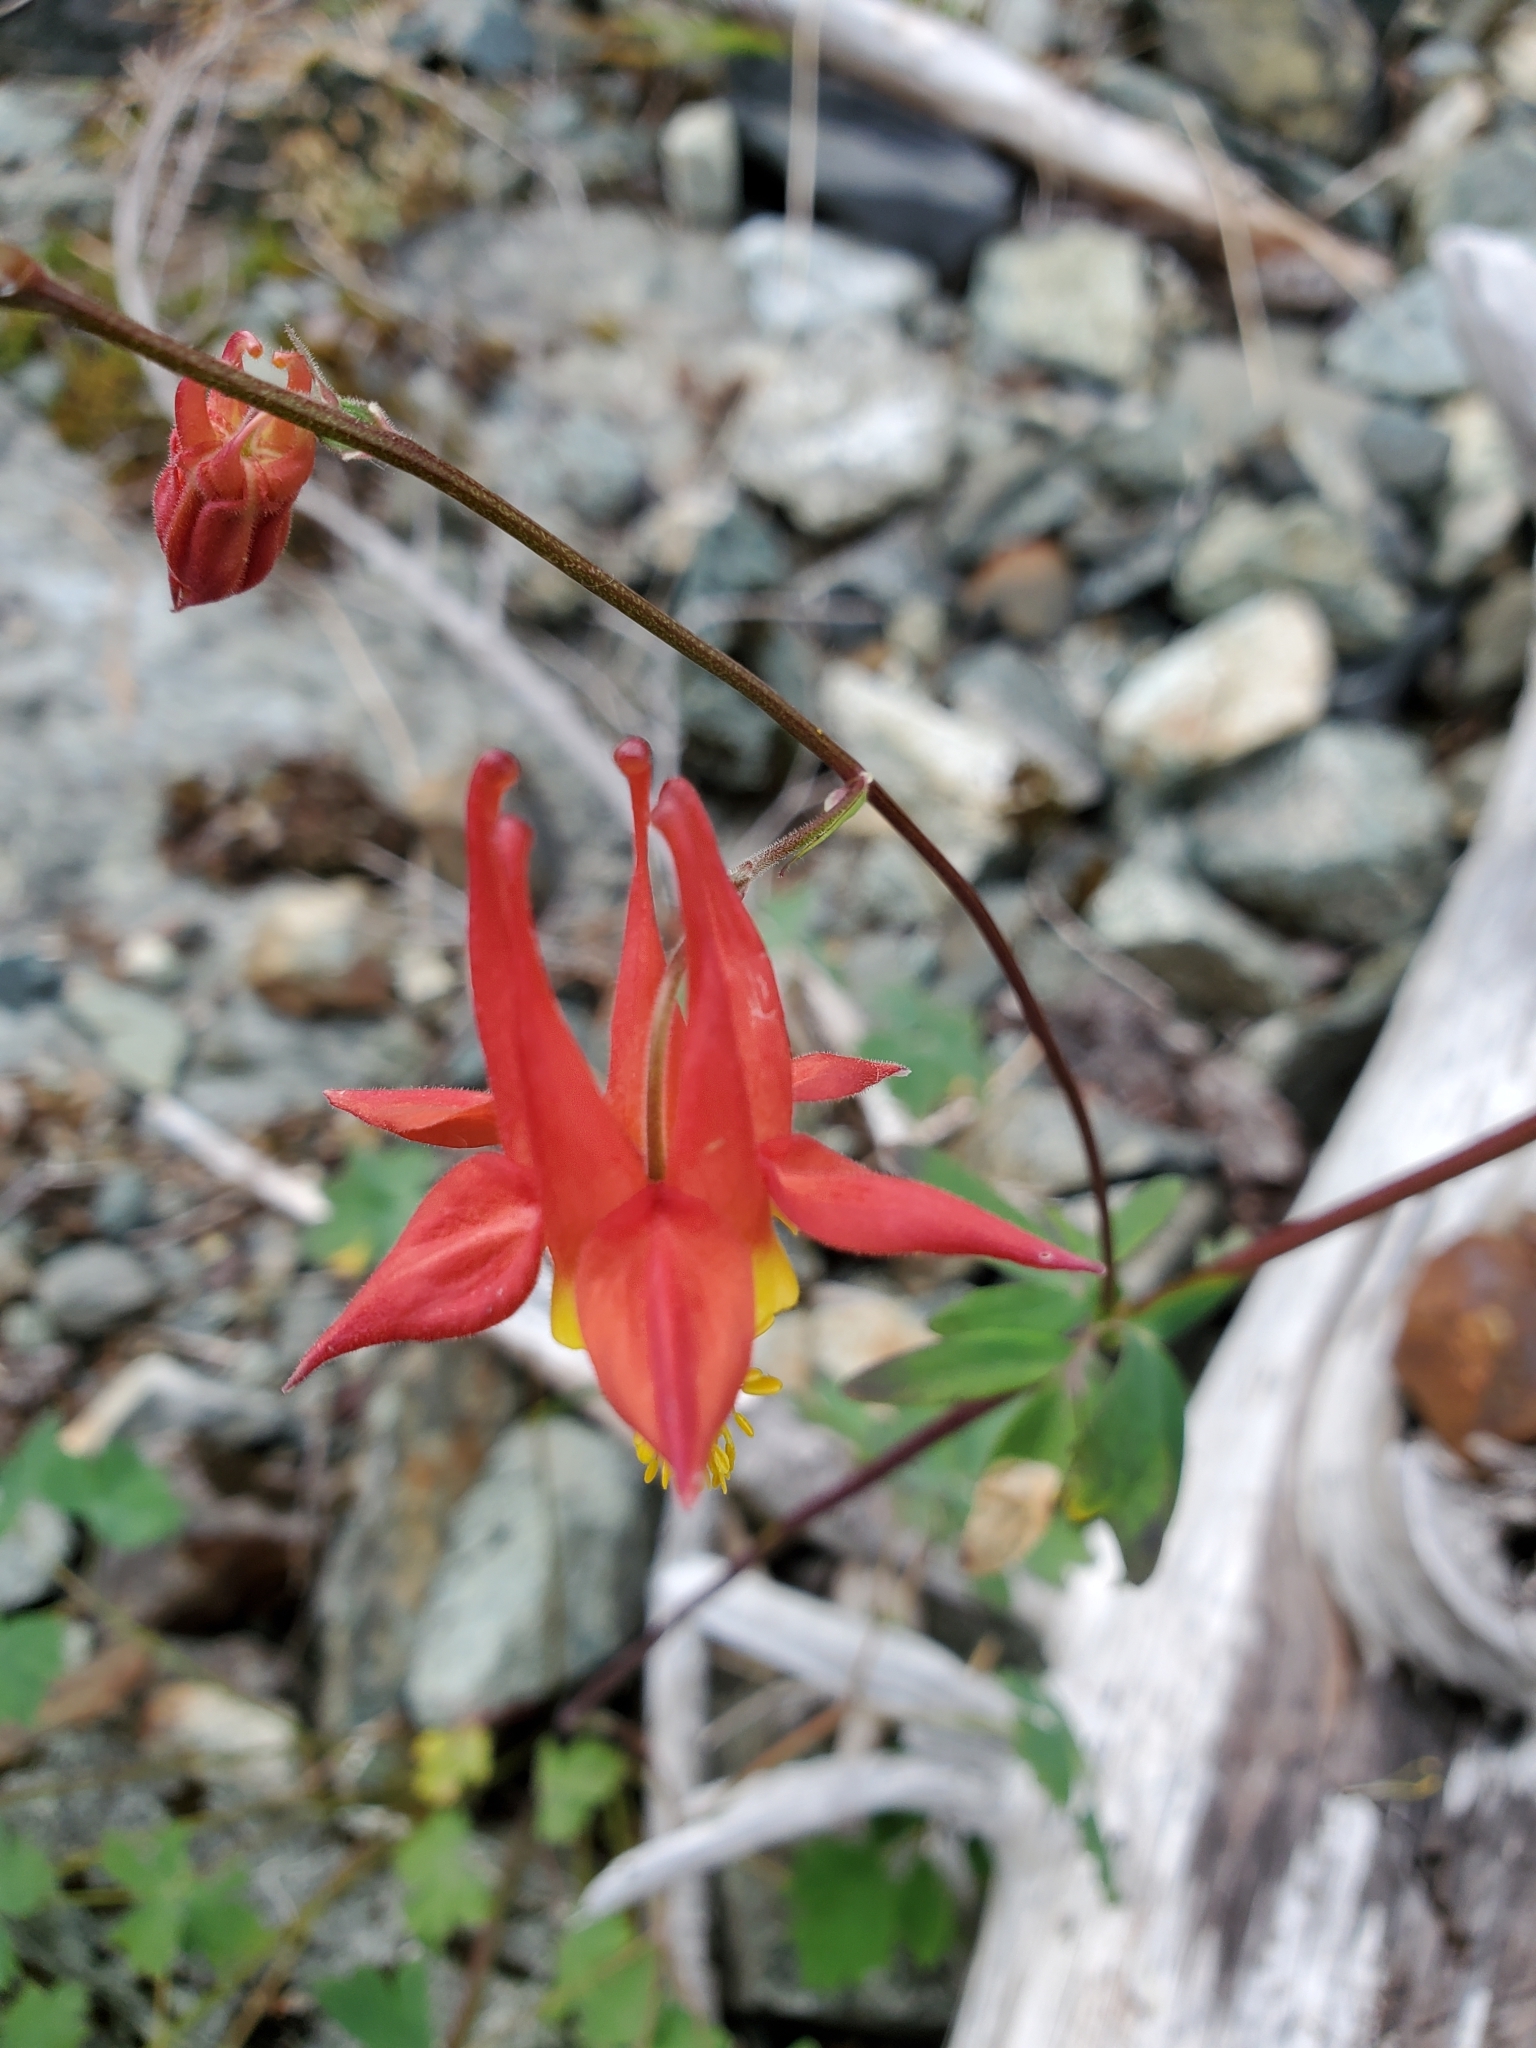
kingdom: Plantae
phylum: Tracheophyta
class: Magnoliopsida
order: Ranunculales
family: Ranunculaceae
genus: Aquilegia
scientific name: Aquilegia formosa
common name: Sitka columbine
